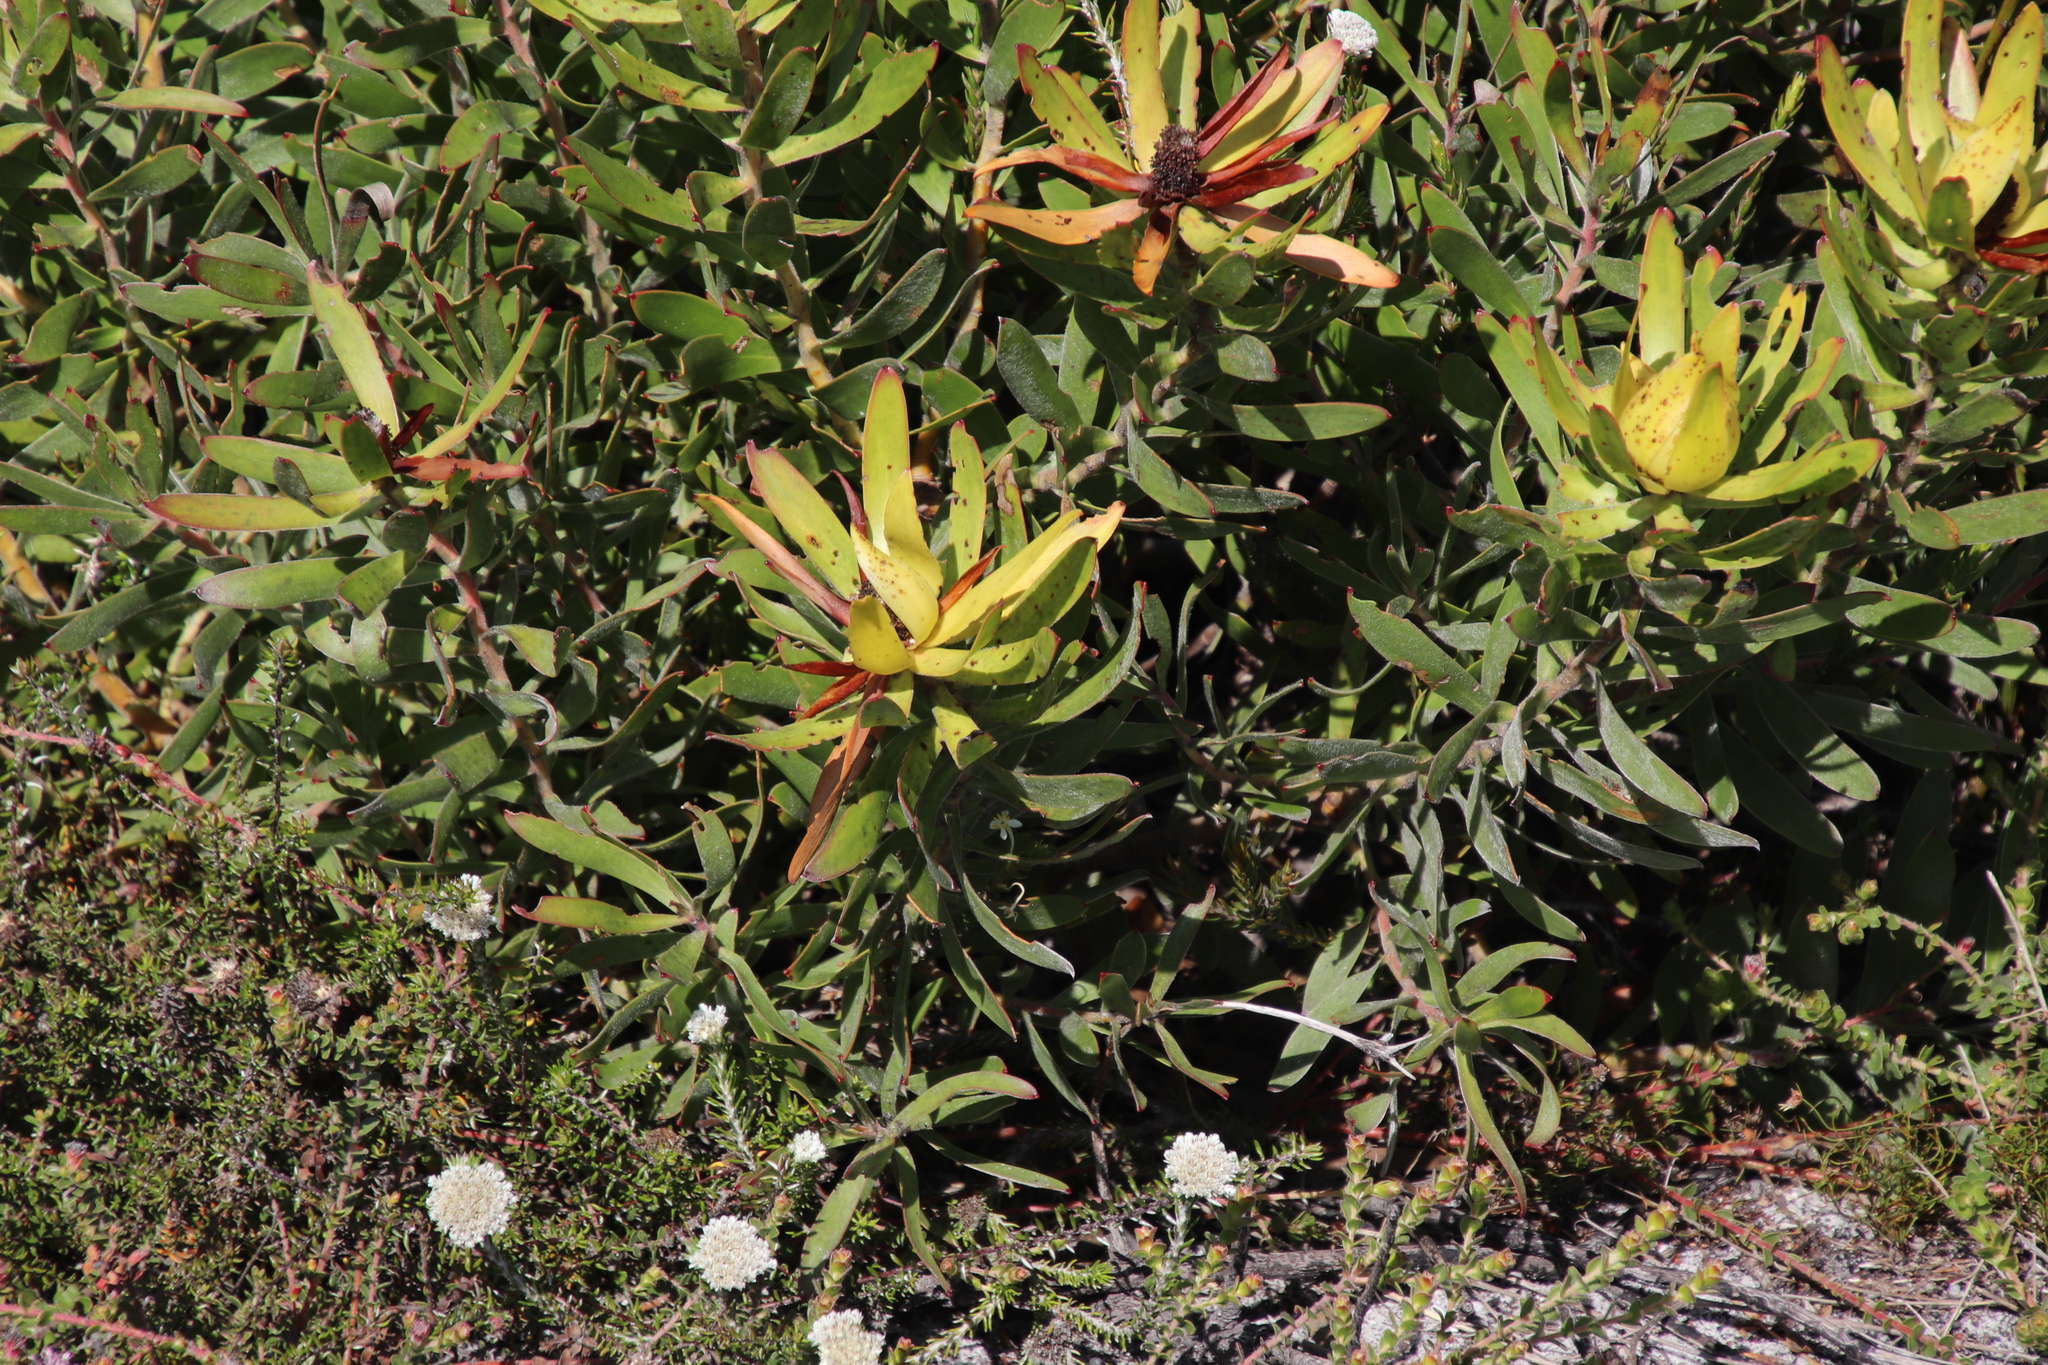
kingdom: Plantae
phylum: Tracheophyta
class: Magnoliopsida
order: Proteales
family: Proteaceae
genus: Leucadendron
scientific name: Leucadendron laureolum
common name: Golden sunshinebush
